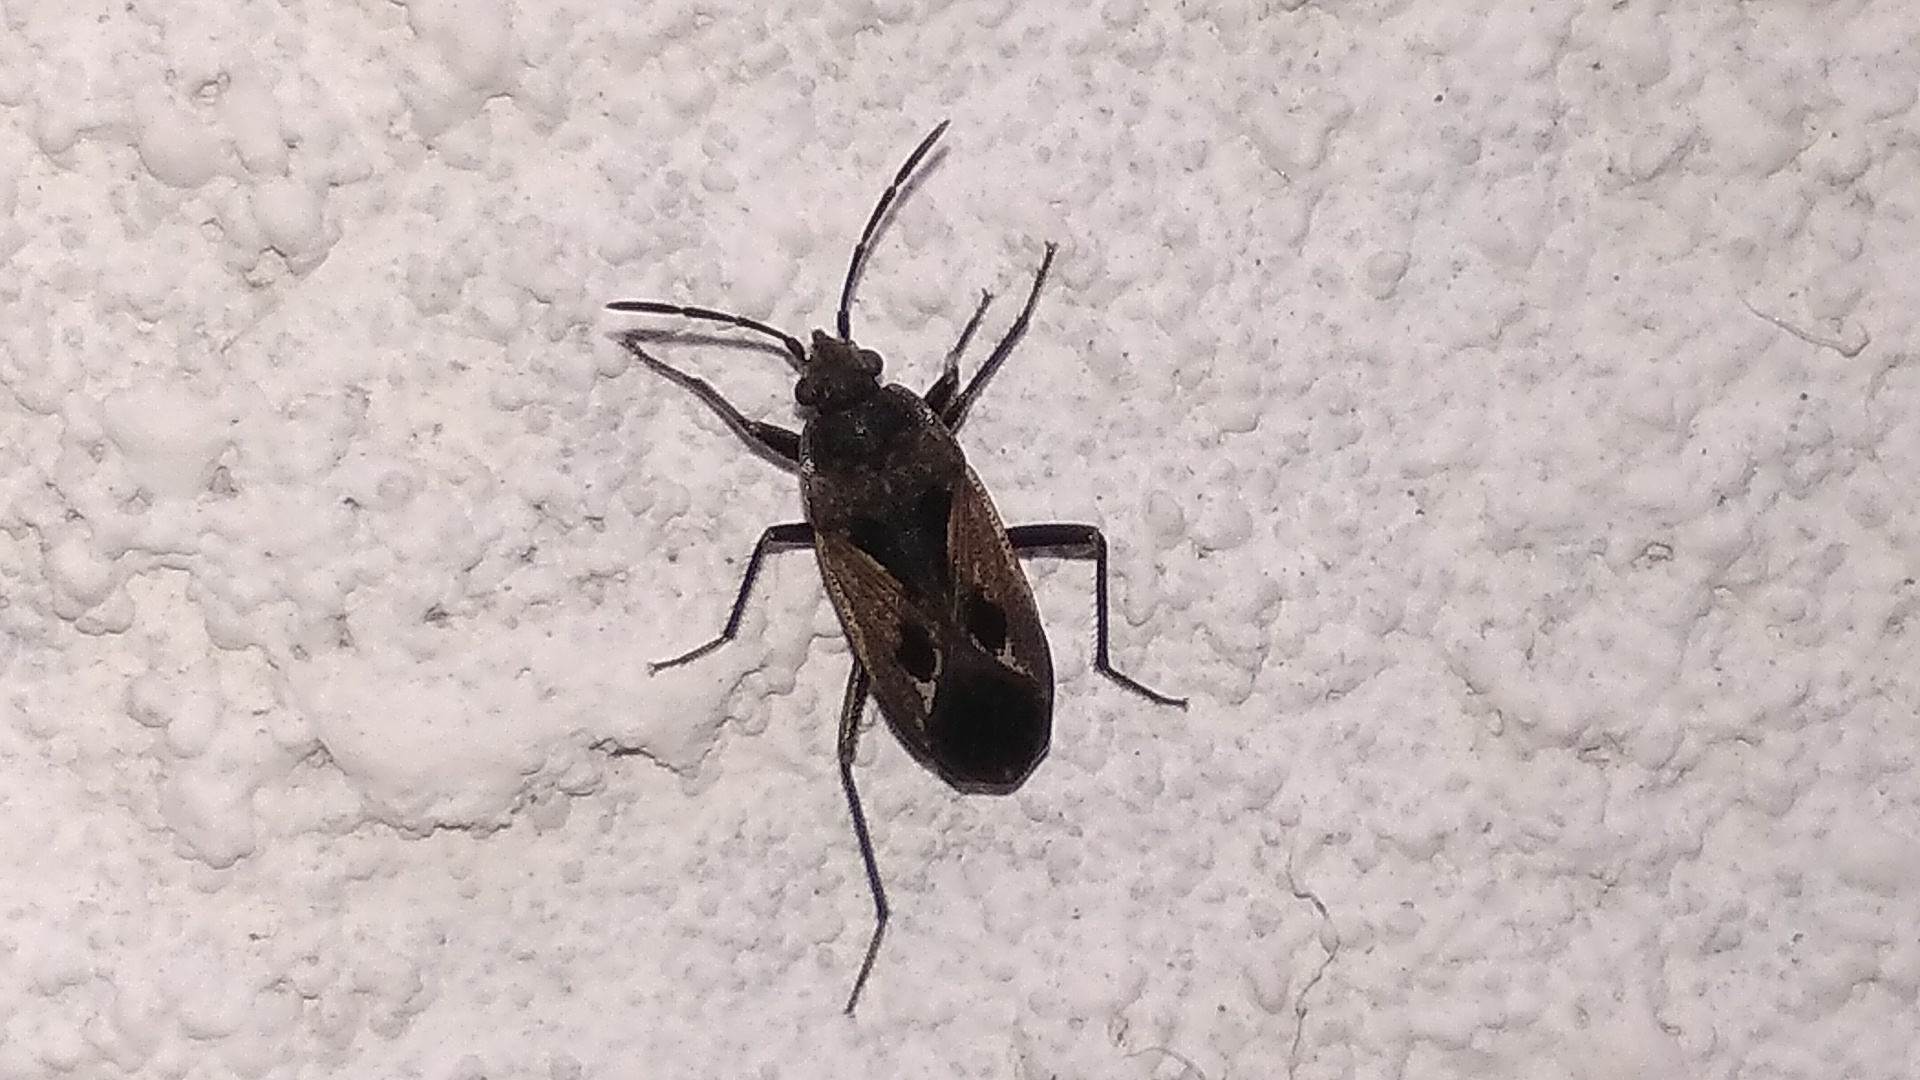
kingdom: Animalia
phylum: Arthropoda
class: Insecta
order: Hemiptera
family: Rhyparochromidae
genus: Rhyparochromus
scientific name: Rhyparochromus pini
